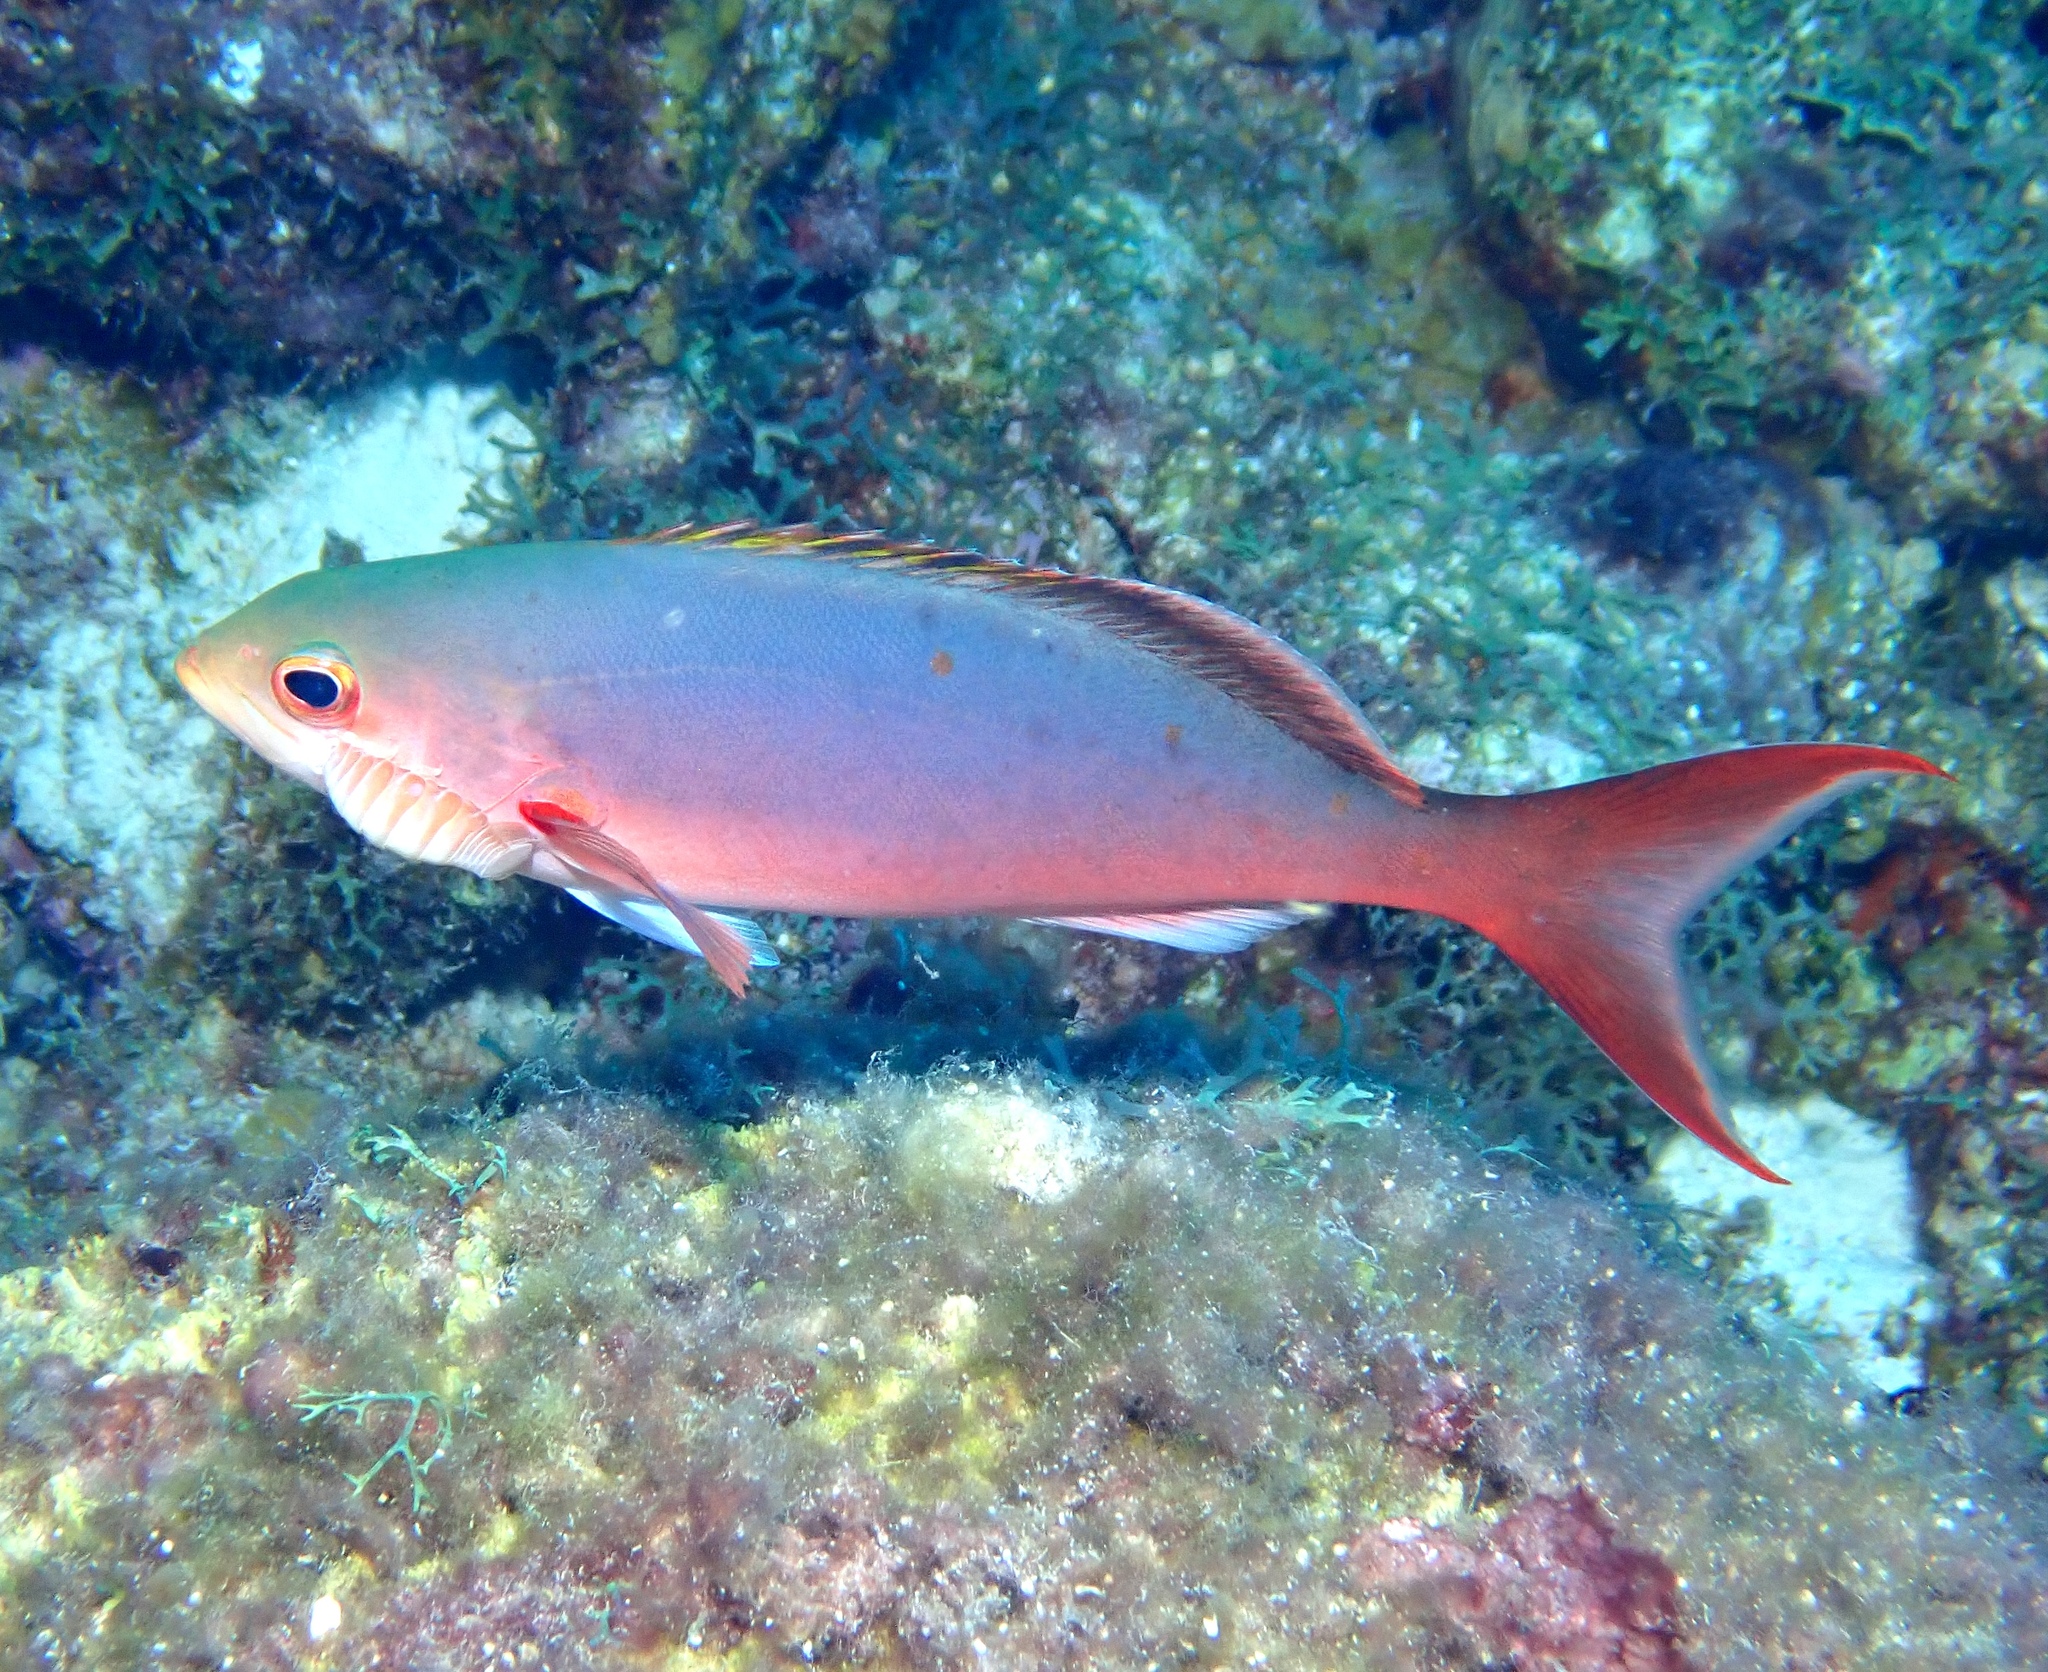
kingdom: Animalia
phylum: Chordata
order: Perciformes
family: Serranidae
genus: Paranthias
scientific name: Paranthias furcifer
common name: Creole-fish
